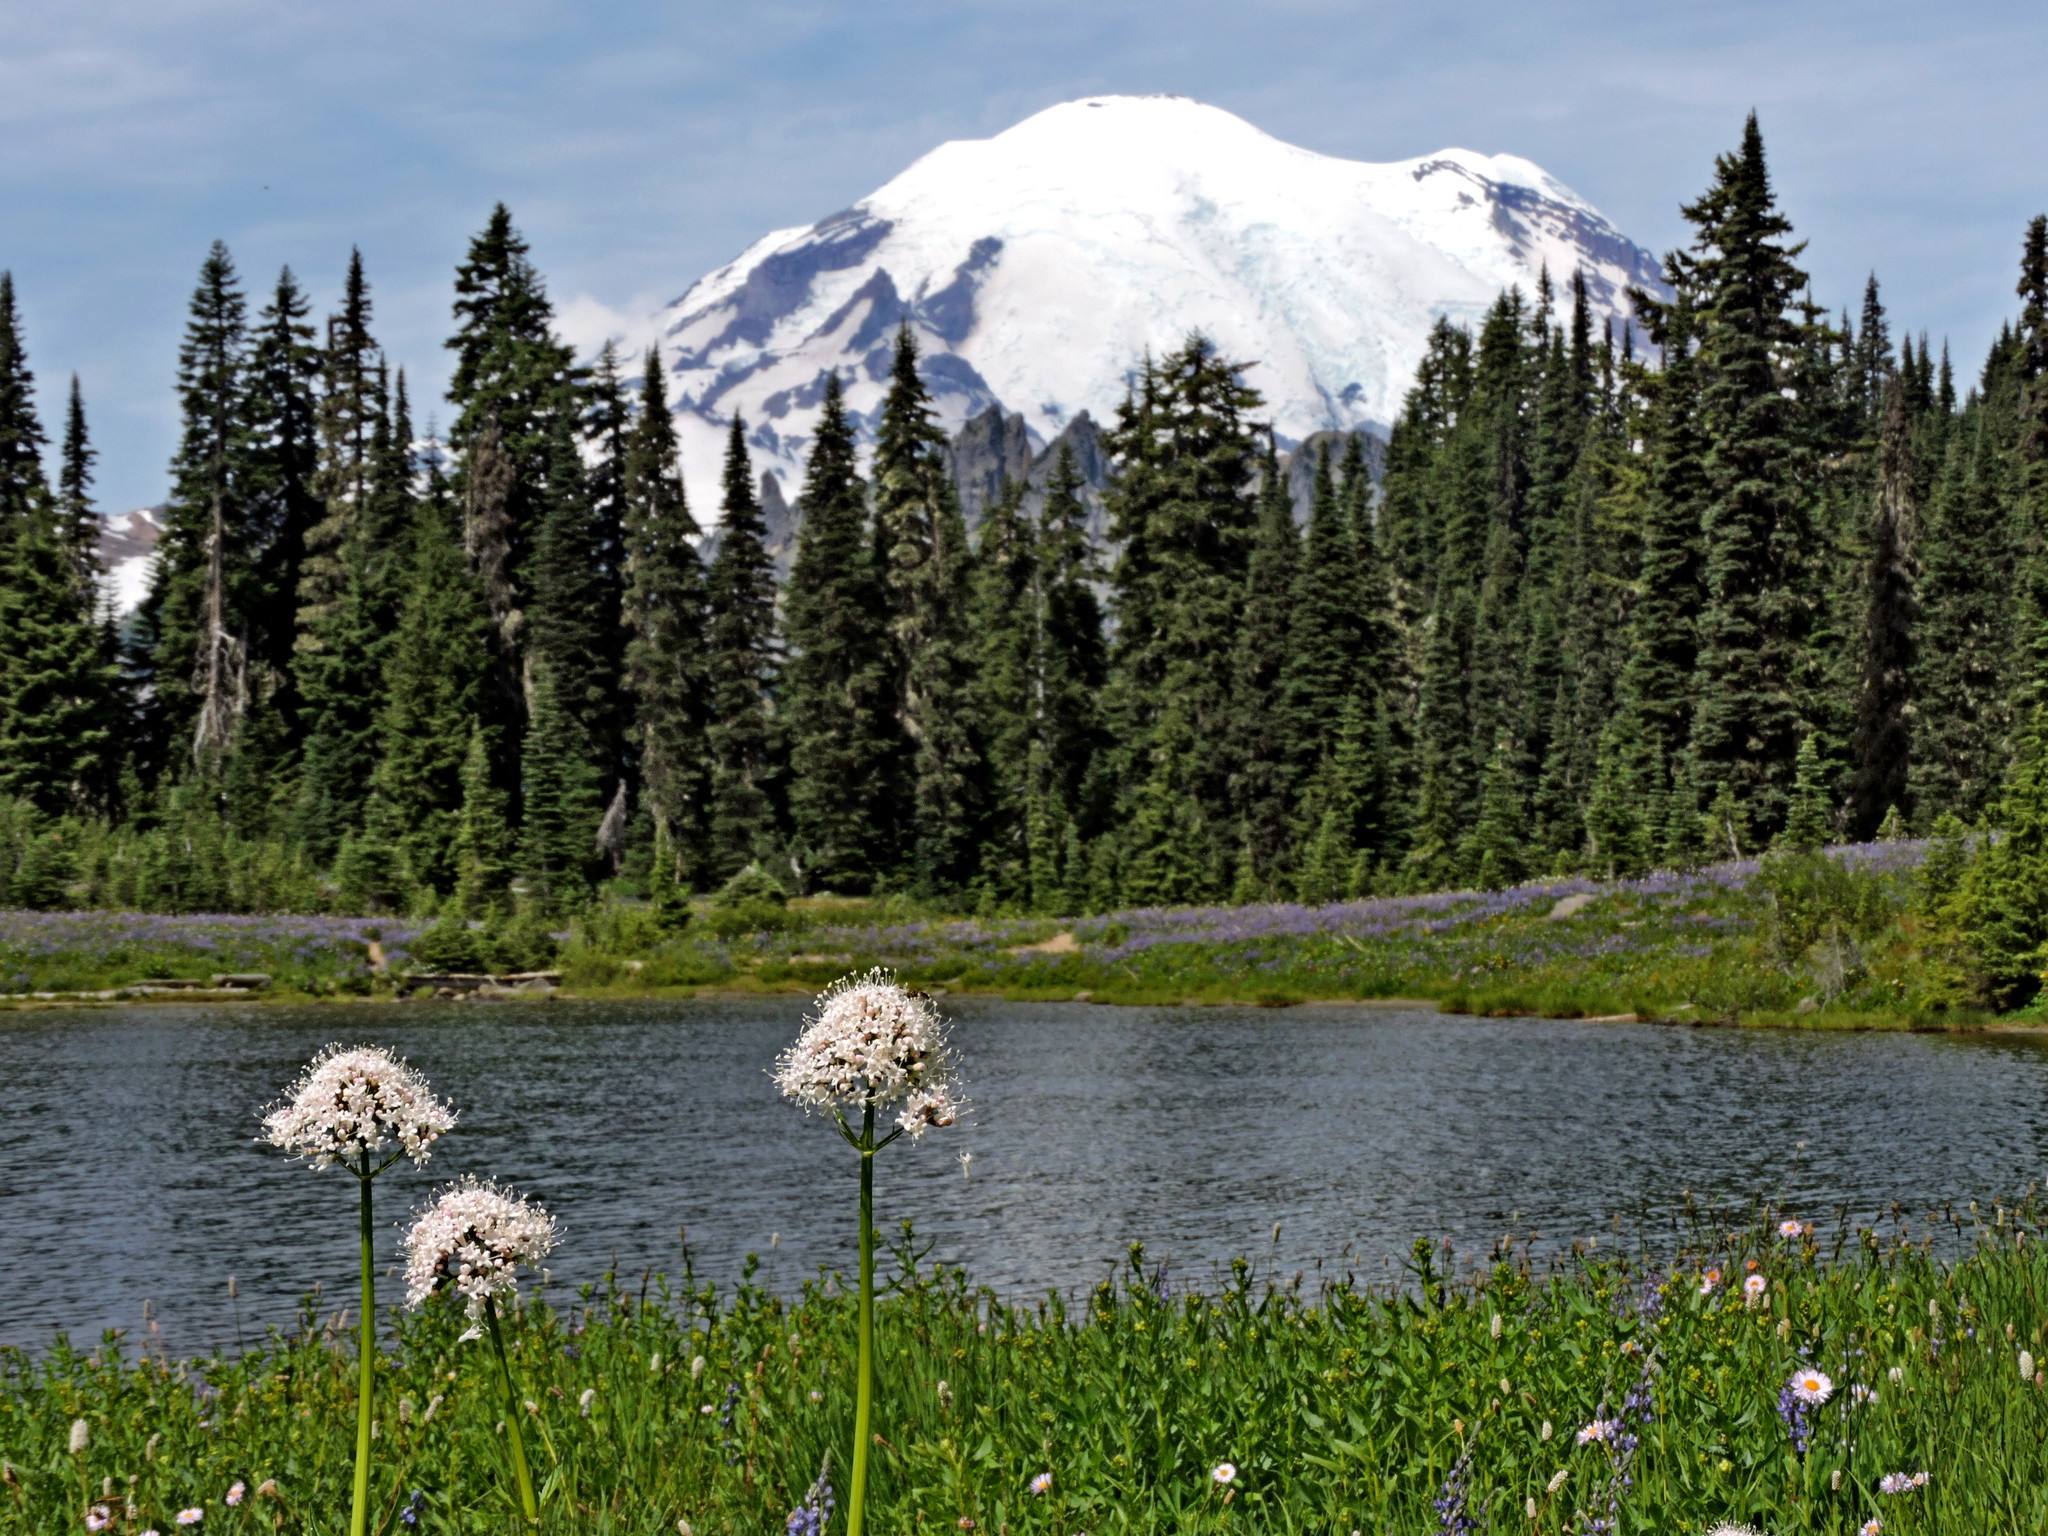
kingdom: Plantae
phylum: Tracheophyta
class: Magnoliopsida
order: Dipsacales
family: Caprifoliaceae
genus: Valeriana
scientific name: Valeriana sitchensis
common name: Pacific valerian
